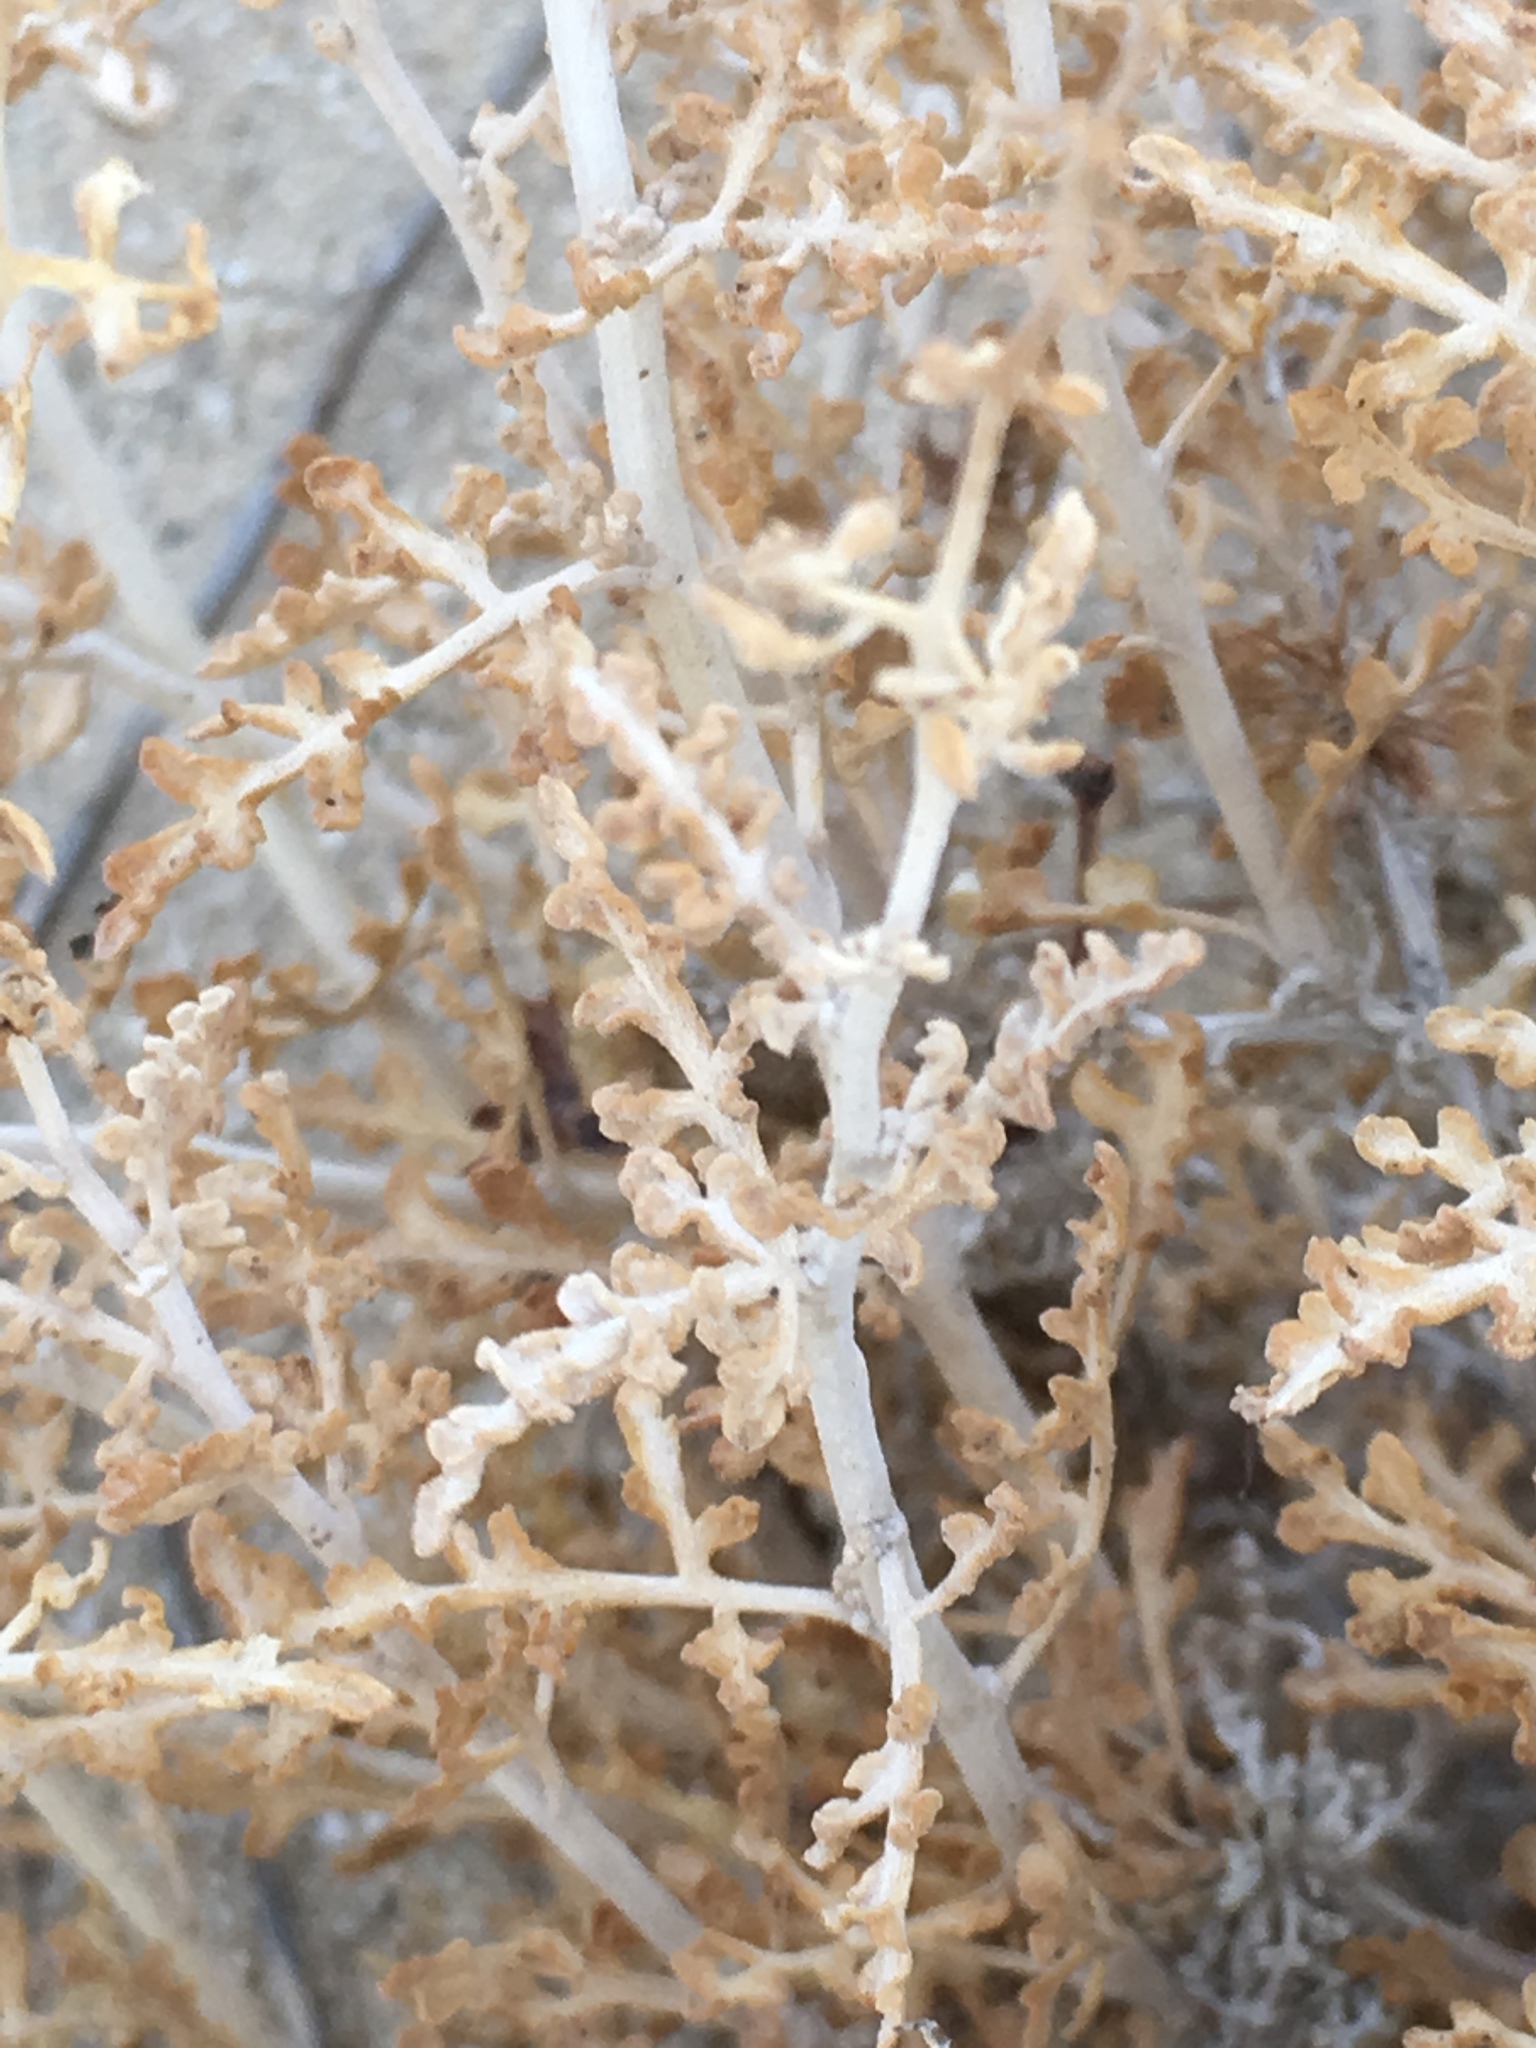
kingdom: Plantae
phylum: Tracheophyta
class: Magnoliopsida
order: Asterales
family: Asteraceae
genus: Ambrosia
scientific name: Ambrosia dumosa
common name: Bur-sage
